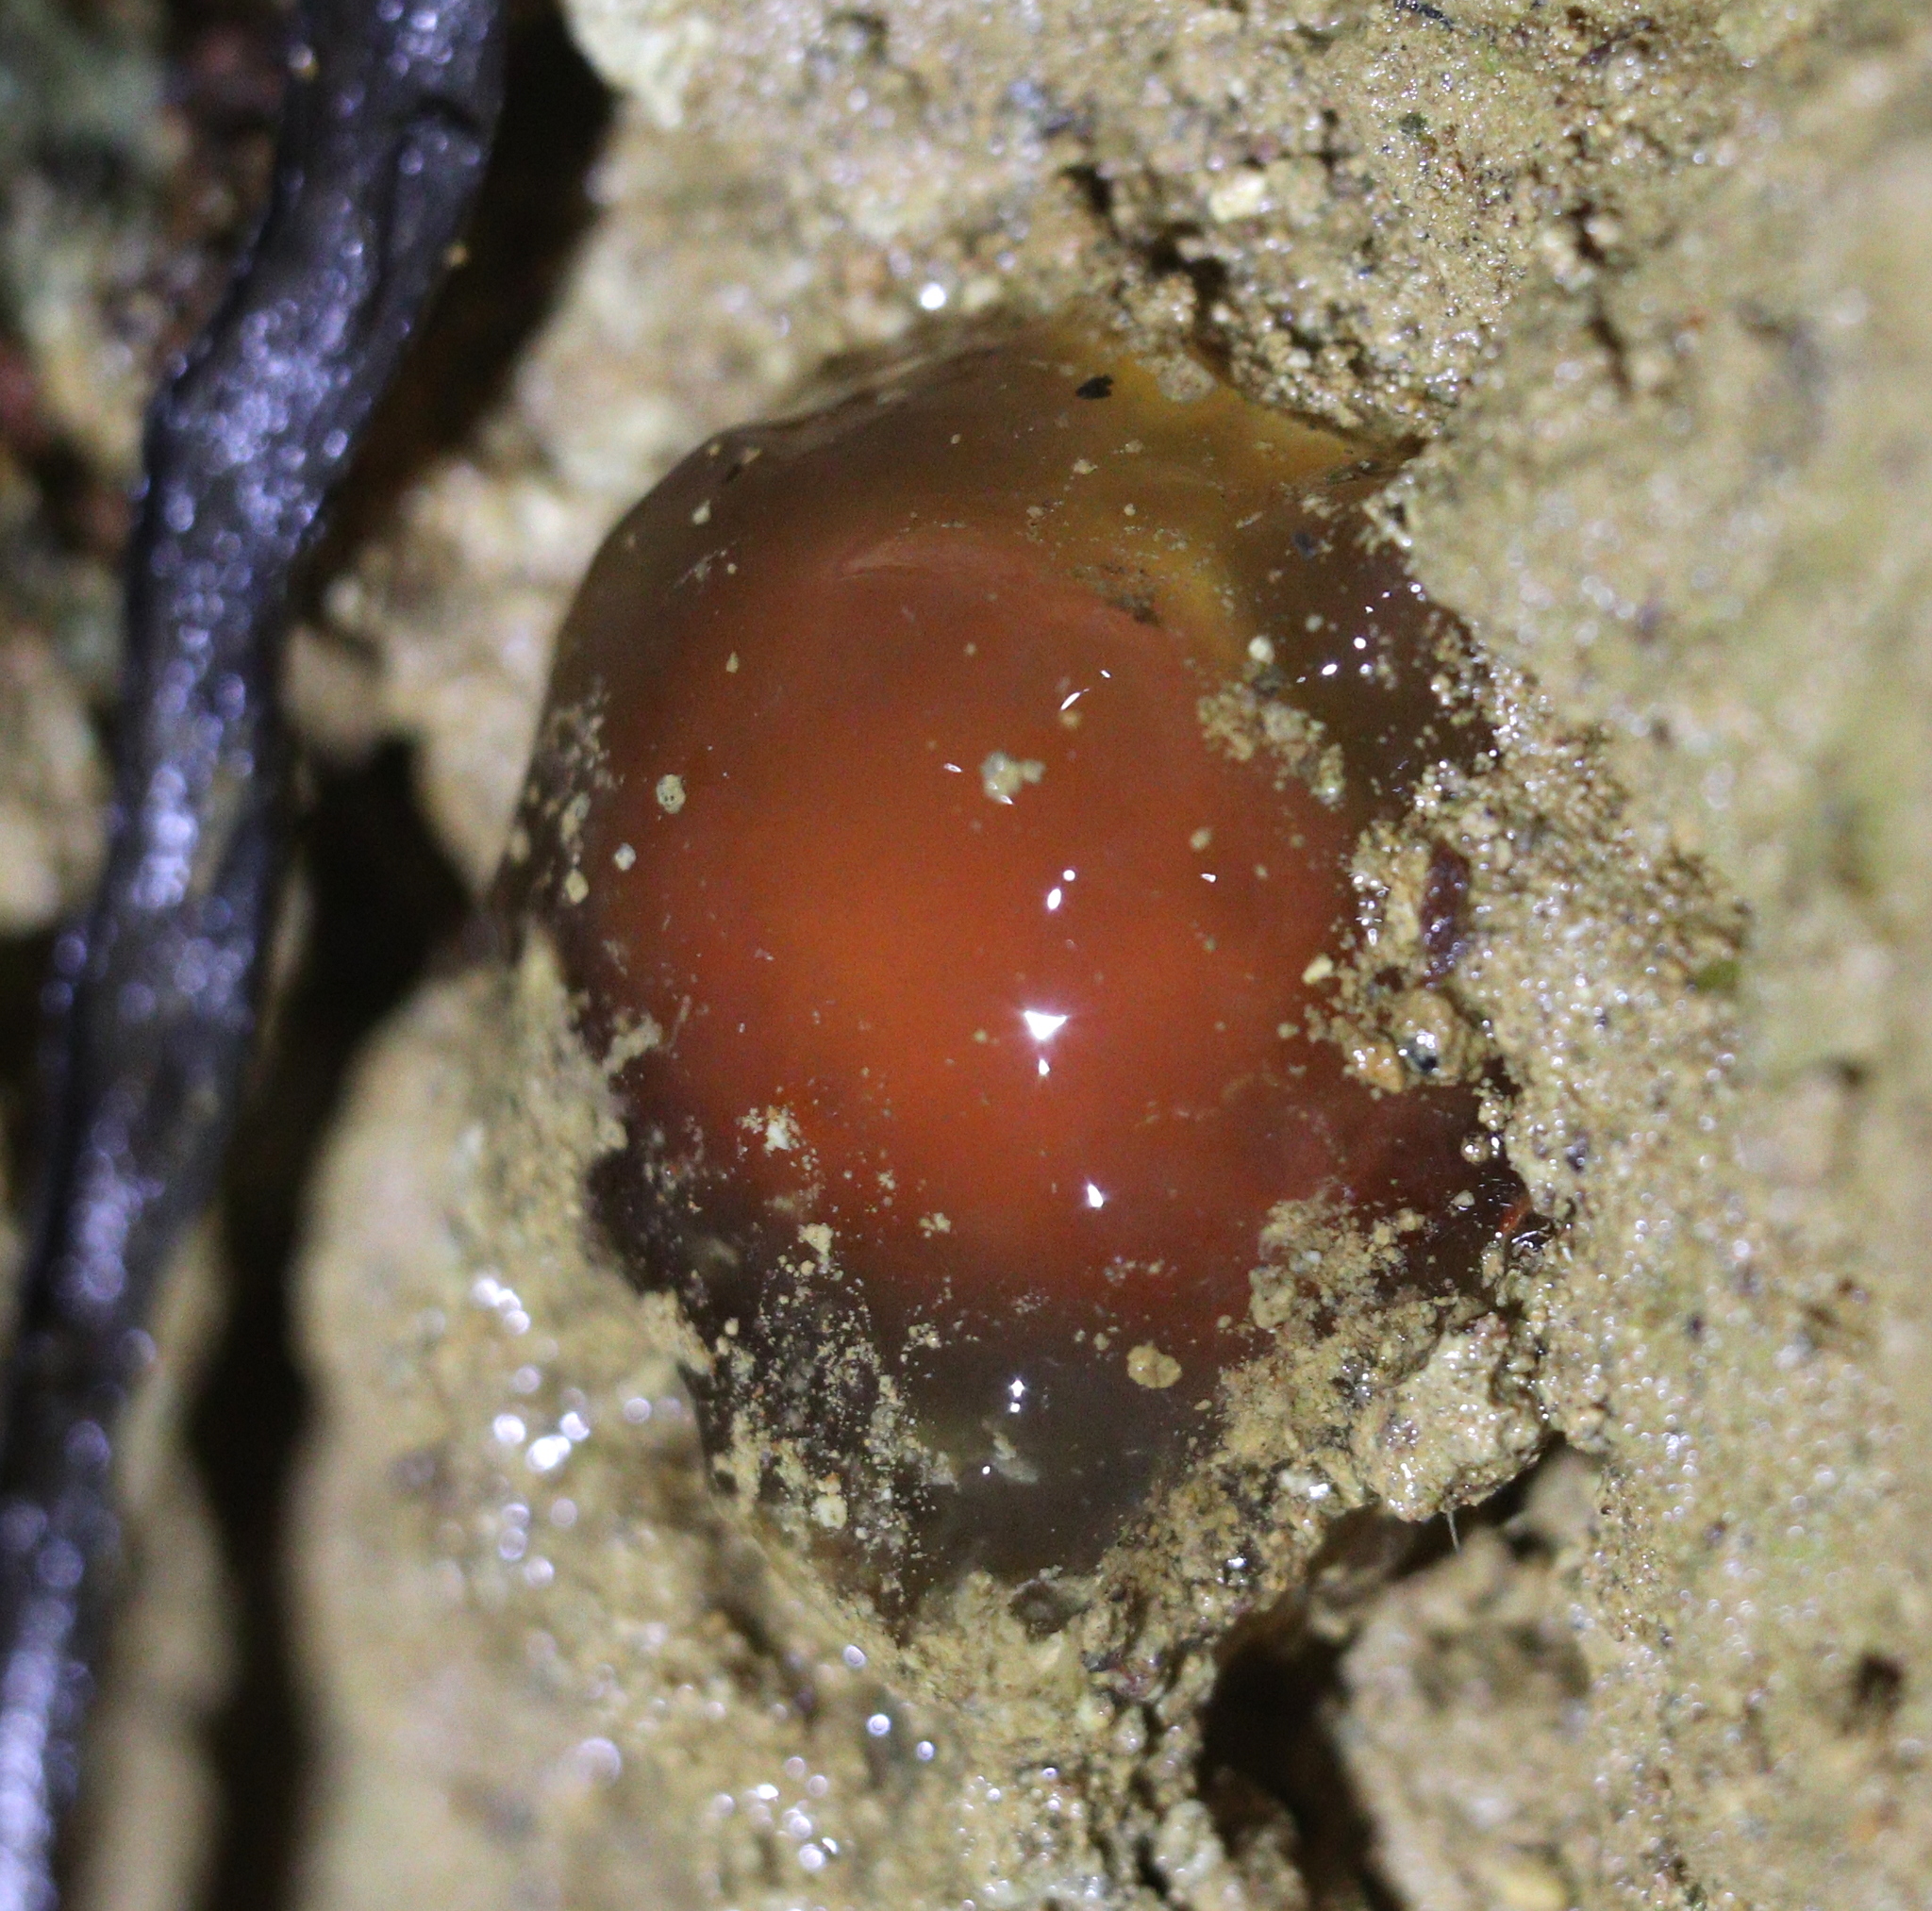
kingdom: Fungi
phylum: Basidiomycota
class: Agaricomycetes
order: Boletales
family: Calostomataceae
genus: Calostoma
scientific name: Calostoma cinnabarinum
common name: Stalked puffball-in-aspic
